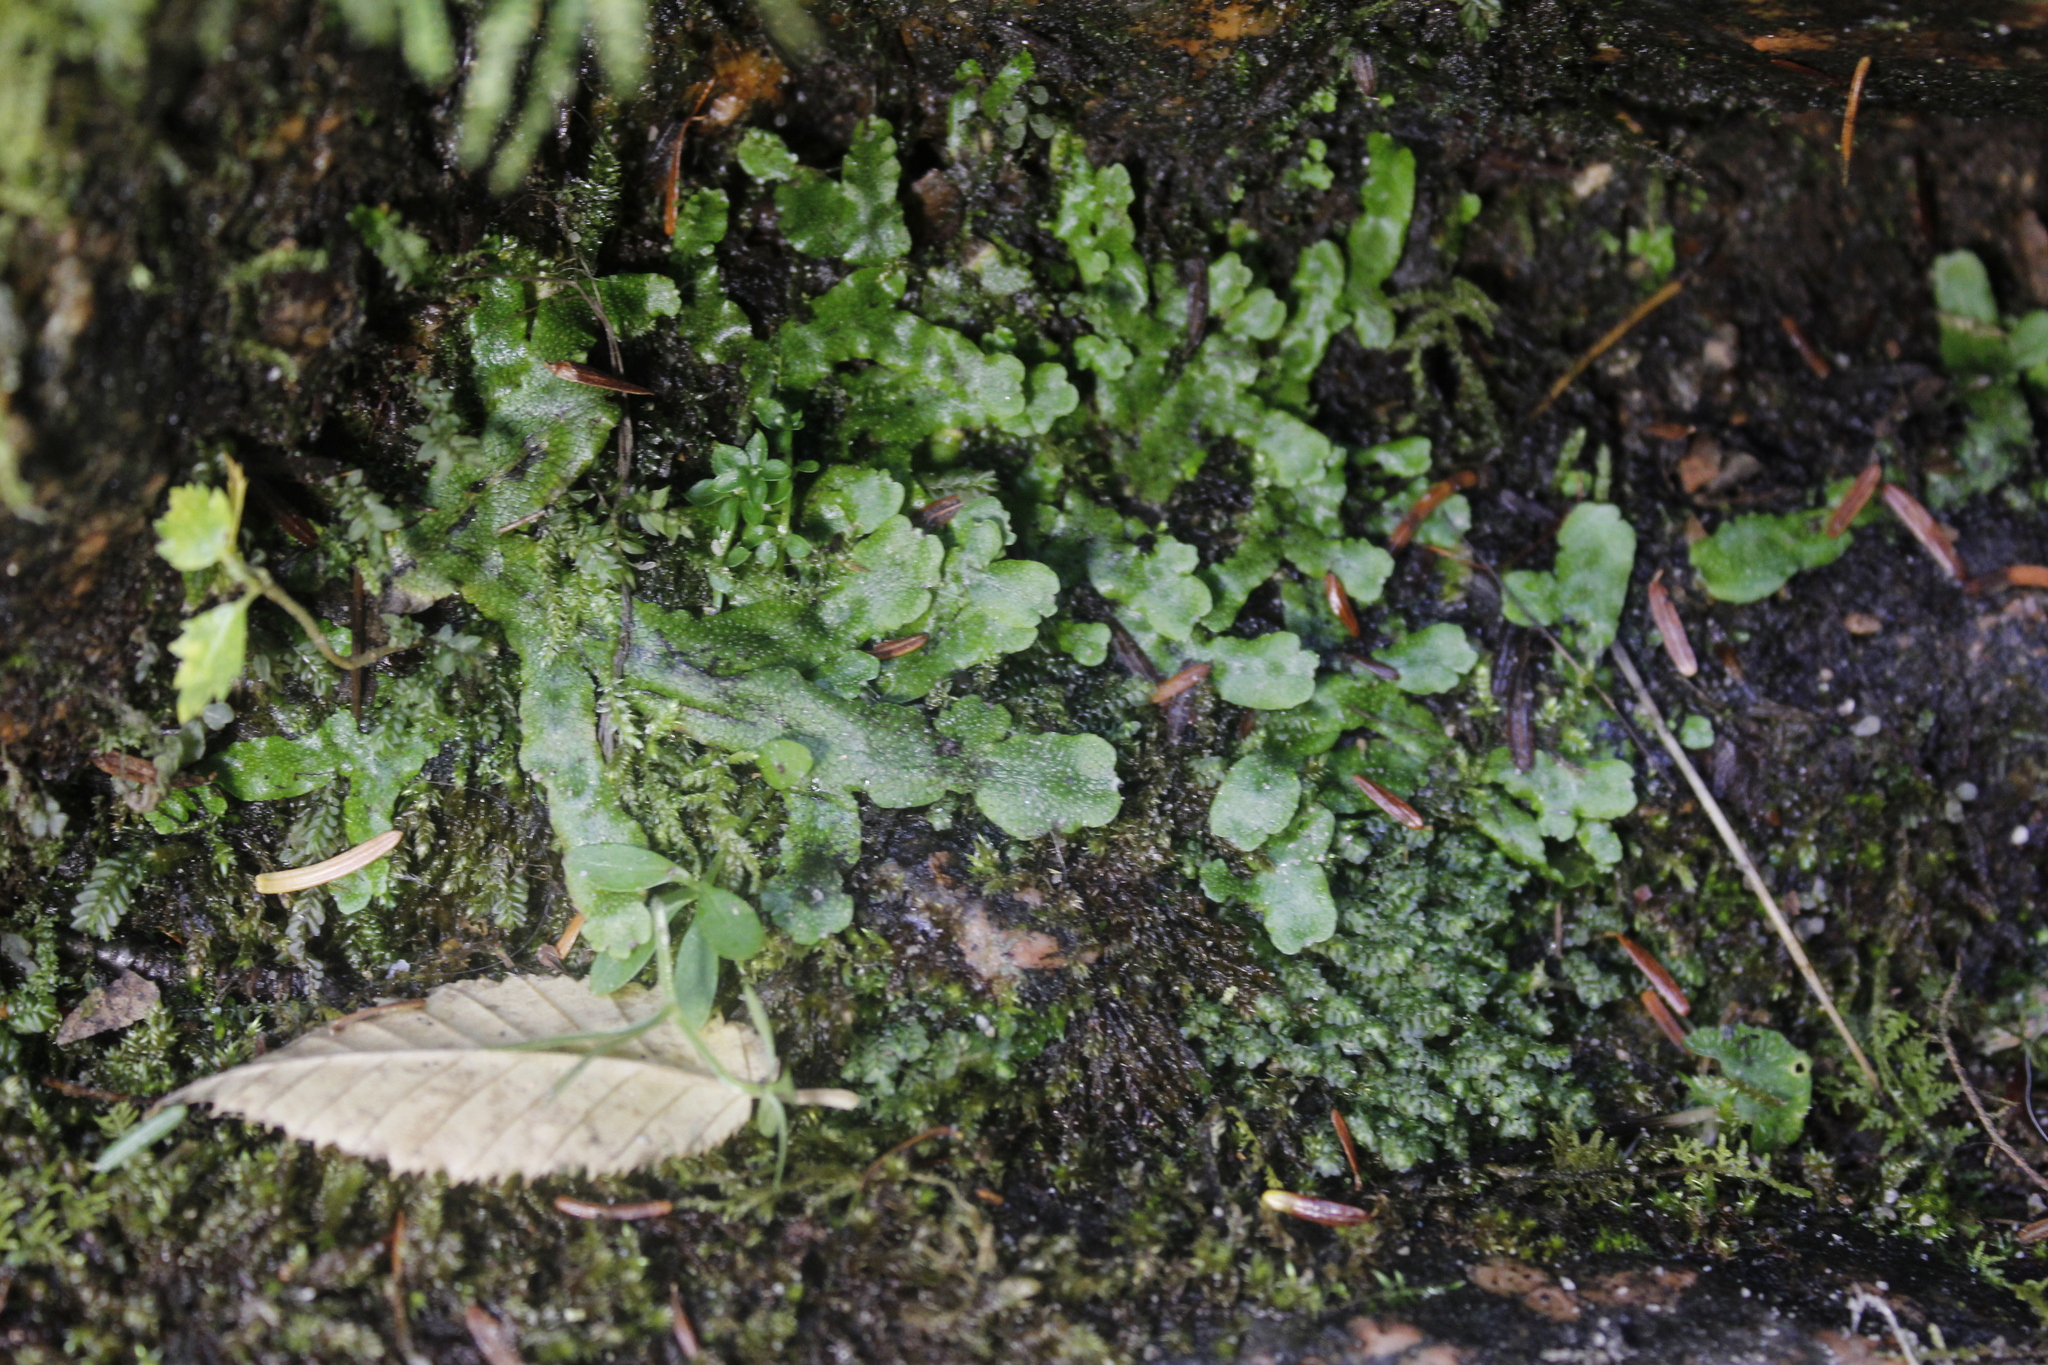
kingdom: Plantae
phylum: Marchantiophyta
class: Marchantiopsida
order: Marchantiales
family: Conocephalaceae
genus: Conocephalum
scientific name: Conocephalum salebrosum
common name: Cat-tongue liverwort
